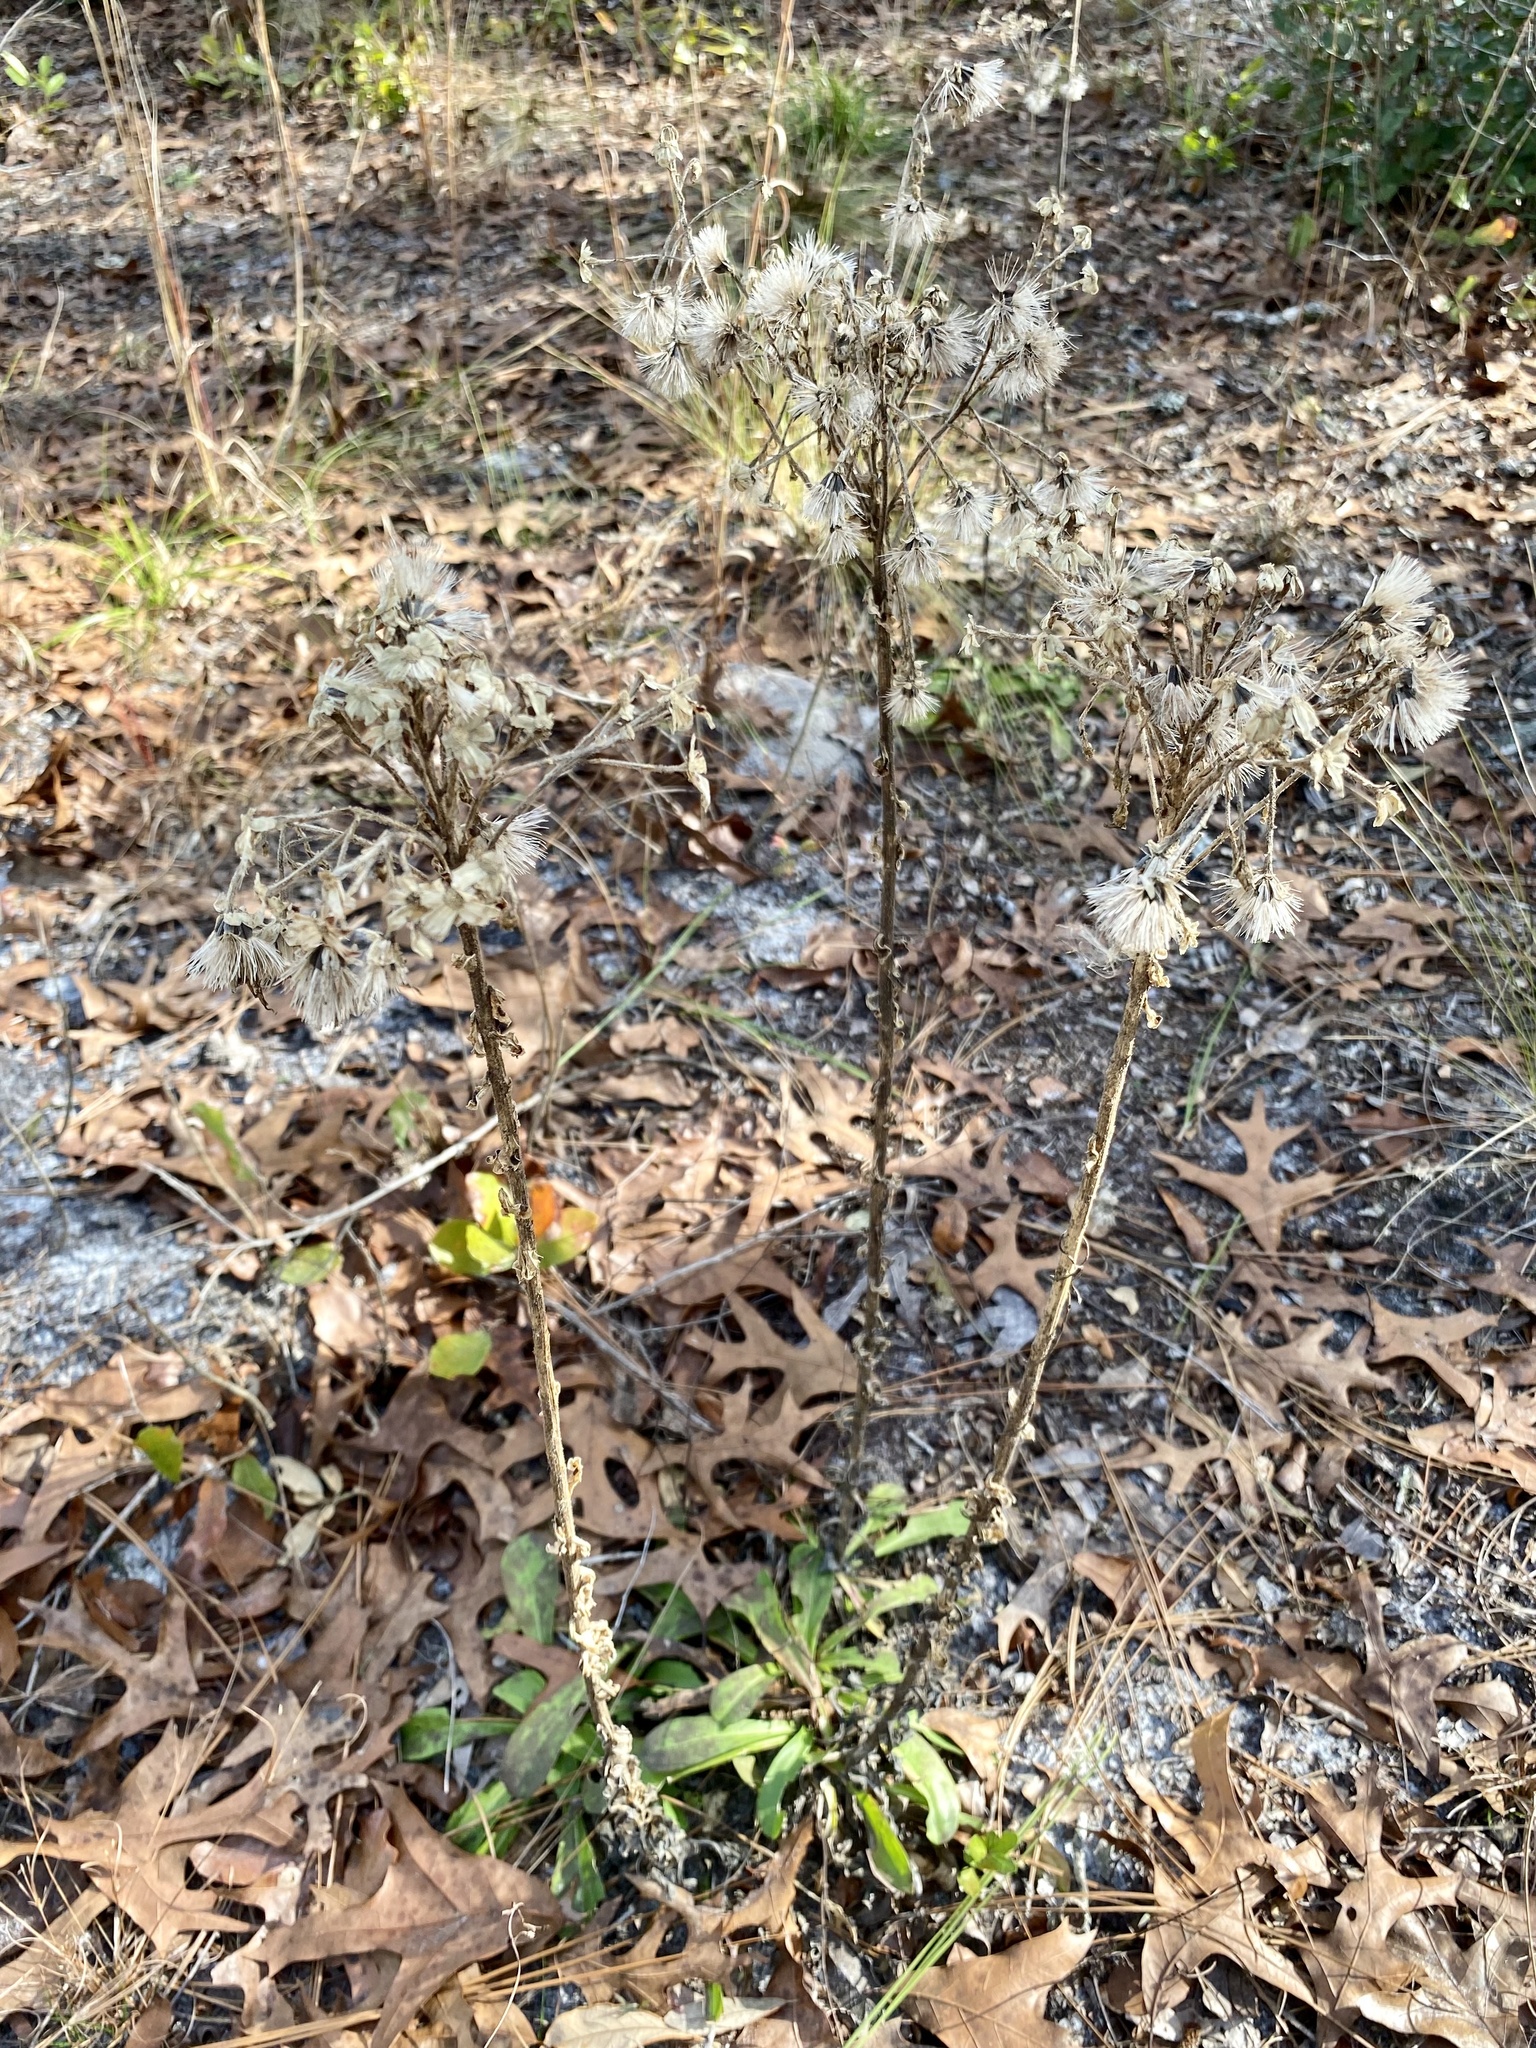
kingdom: Plantae
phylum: Tracheophyta
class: Magnoliopsida
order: Asterales
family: Asteraceae
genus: Carphephorus
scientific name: Carphephorus corymbosus
